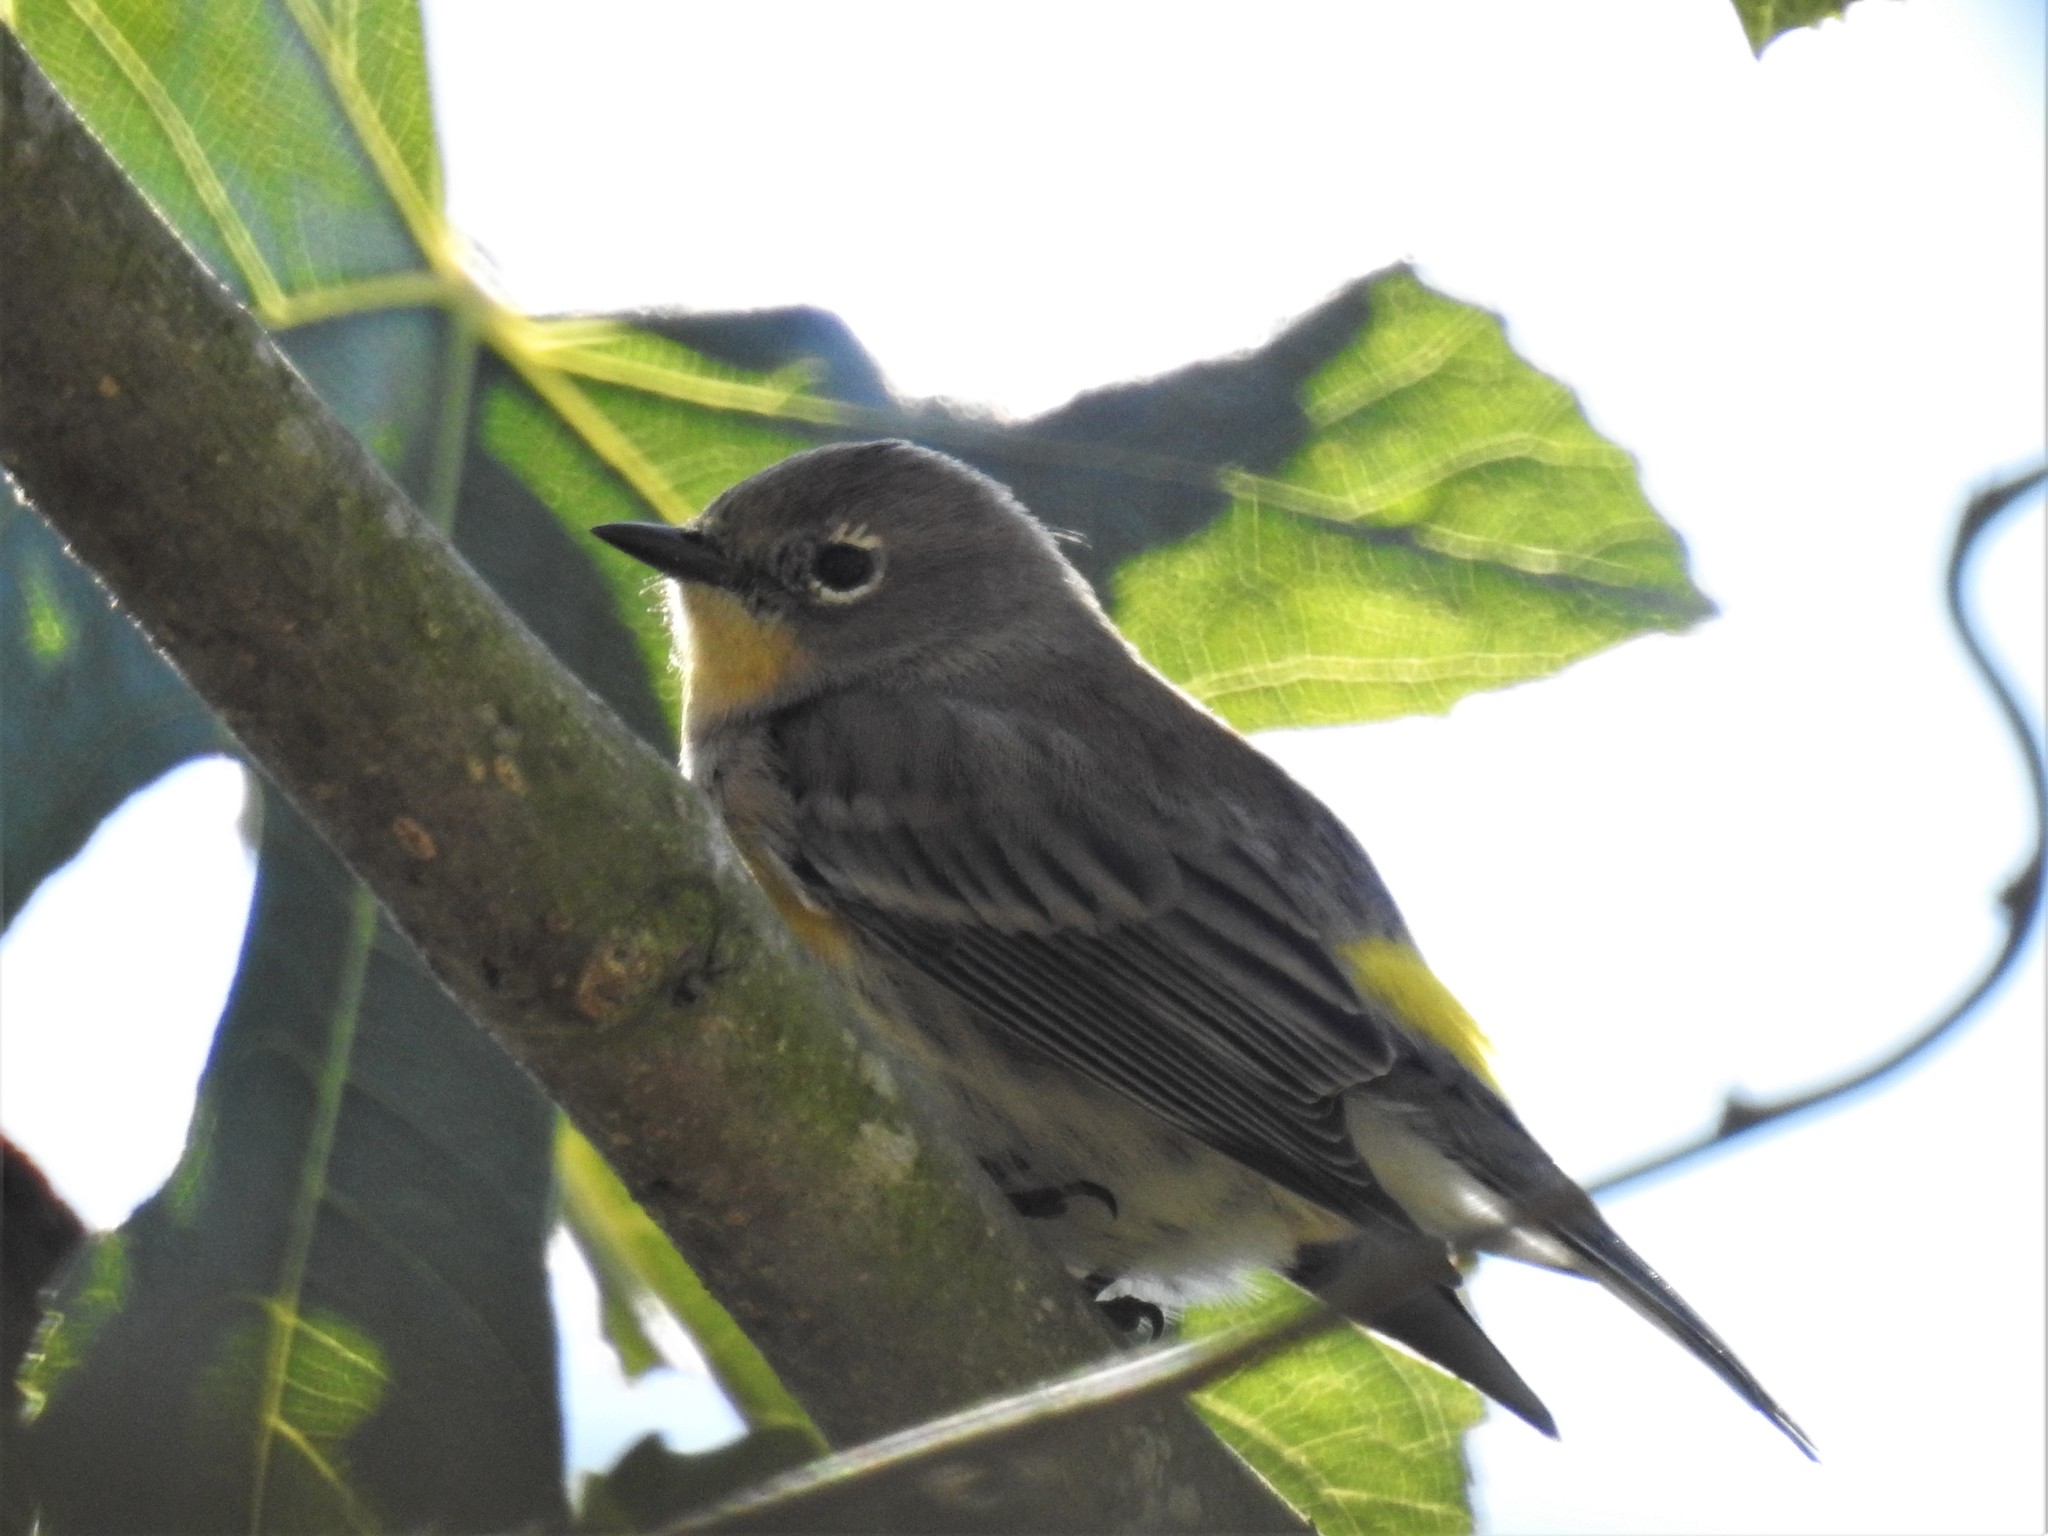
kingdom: Animalia
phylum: Chordata
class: Aves
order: Passeriformes
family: Parulidae
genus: Setophaga
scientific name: Setophaga coronata
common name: Myrtle warbler
